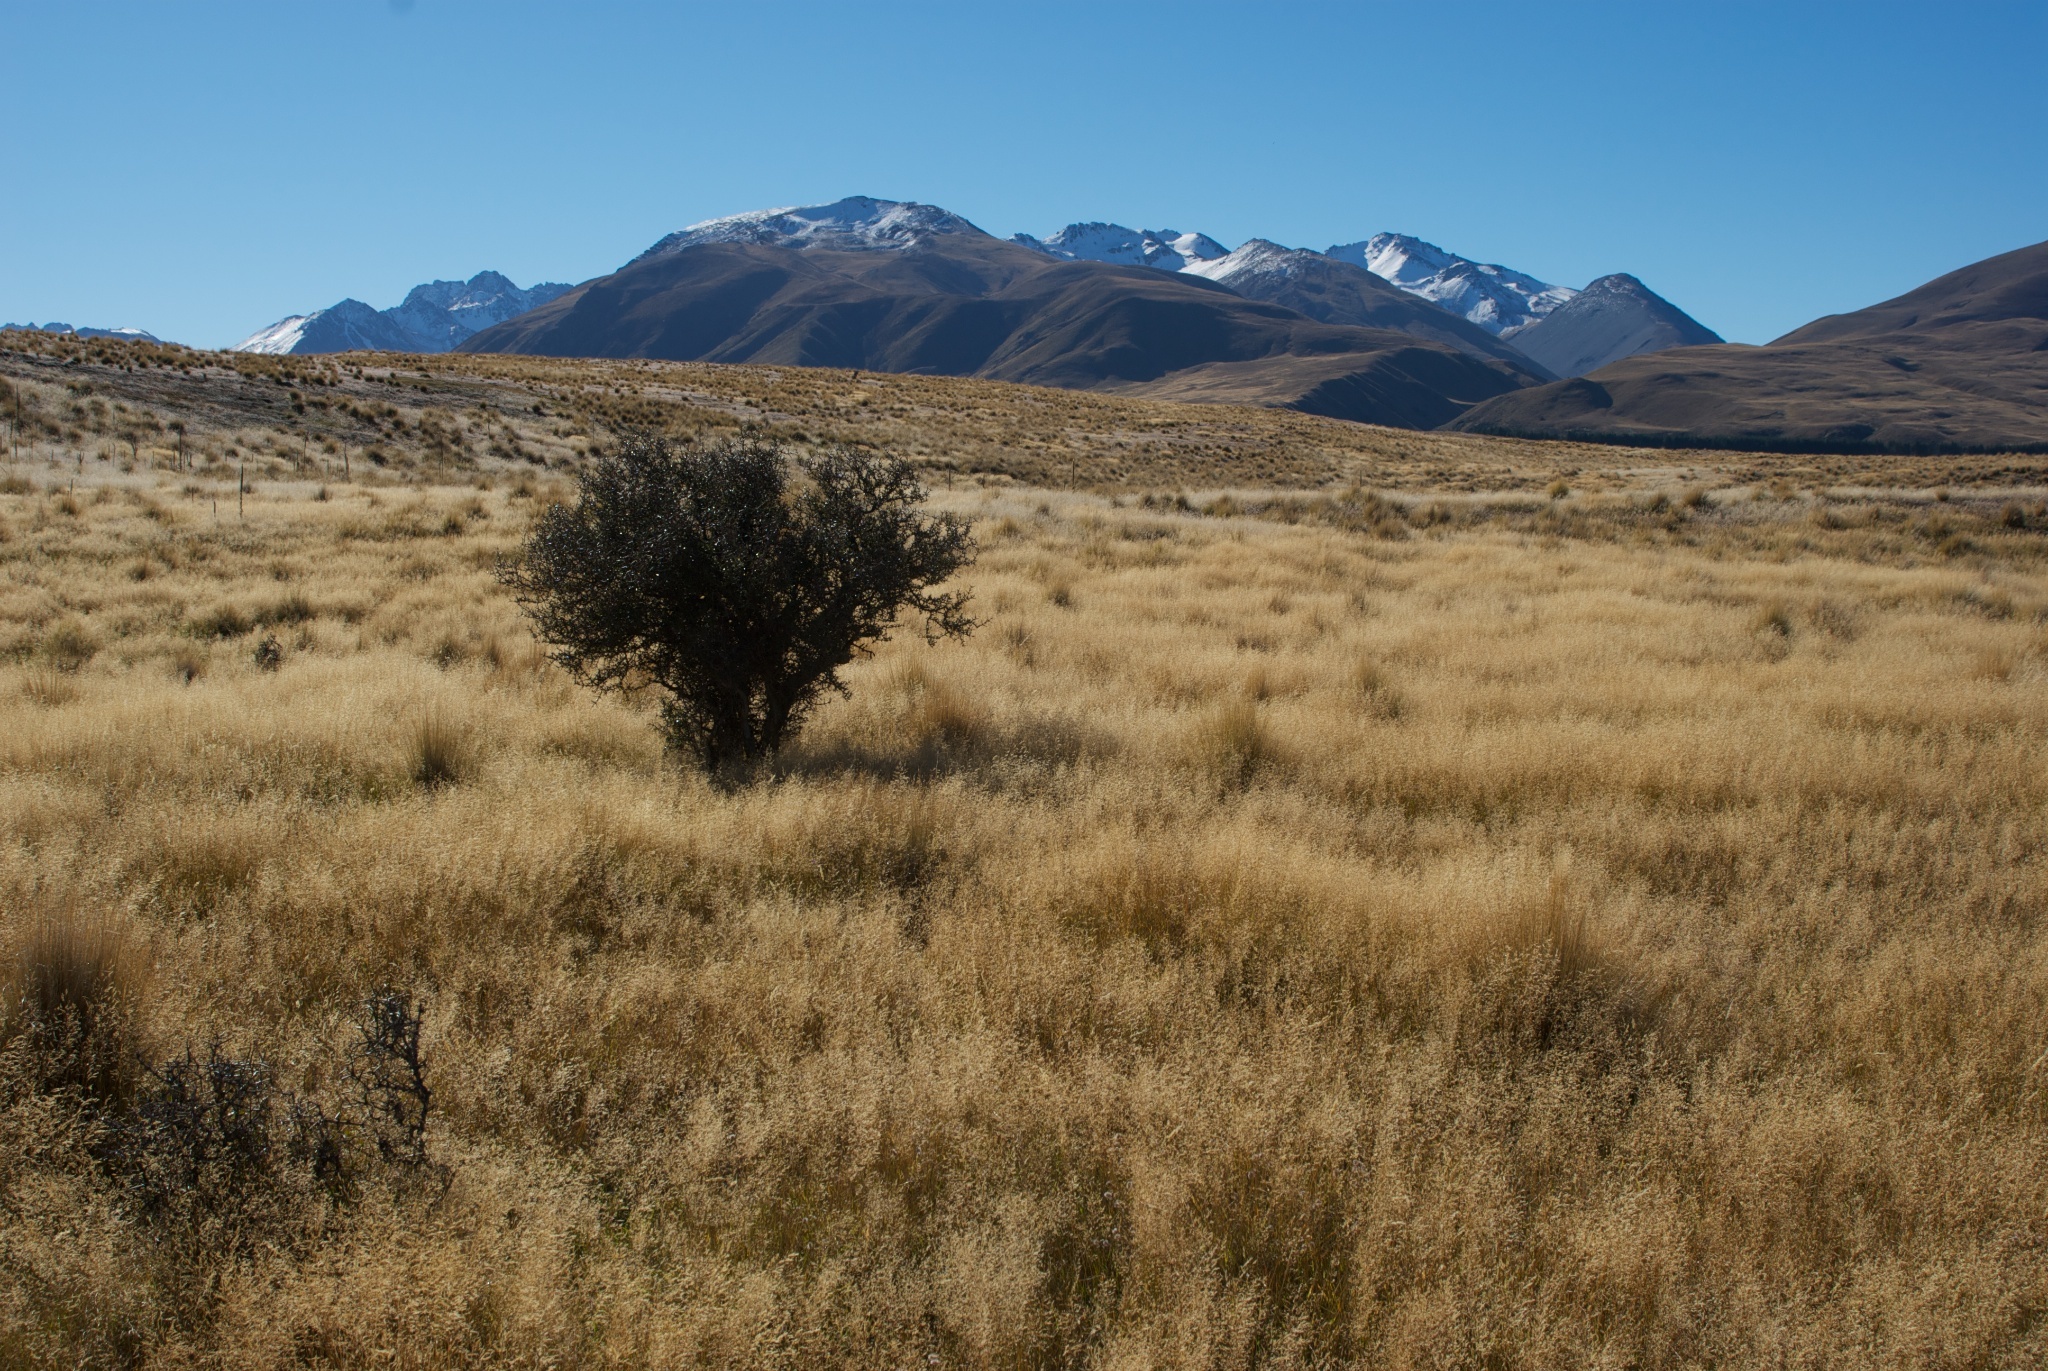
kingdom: Plantae
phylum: Tracheophyta
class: Magnoliopsida
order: Rosales
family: Rhamnaceae
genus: Discaria
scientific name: Discaria toumatou
